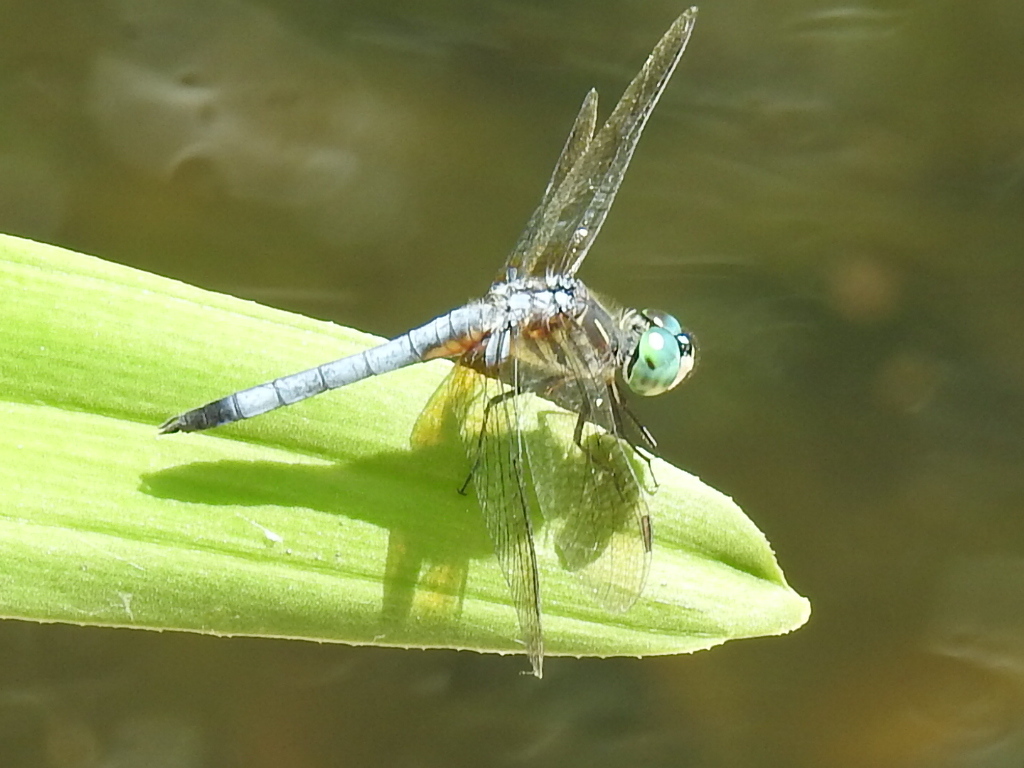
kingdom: Animalia
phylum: Arthropoda
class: Insecta
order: Odonata
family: Libellulidae
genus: Pachydiplax
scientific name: Pachydiplax longipennis
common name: Blue dasher
